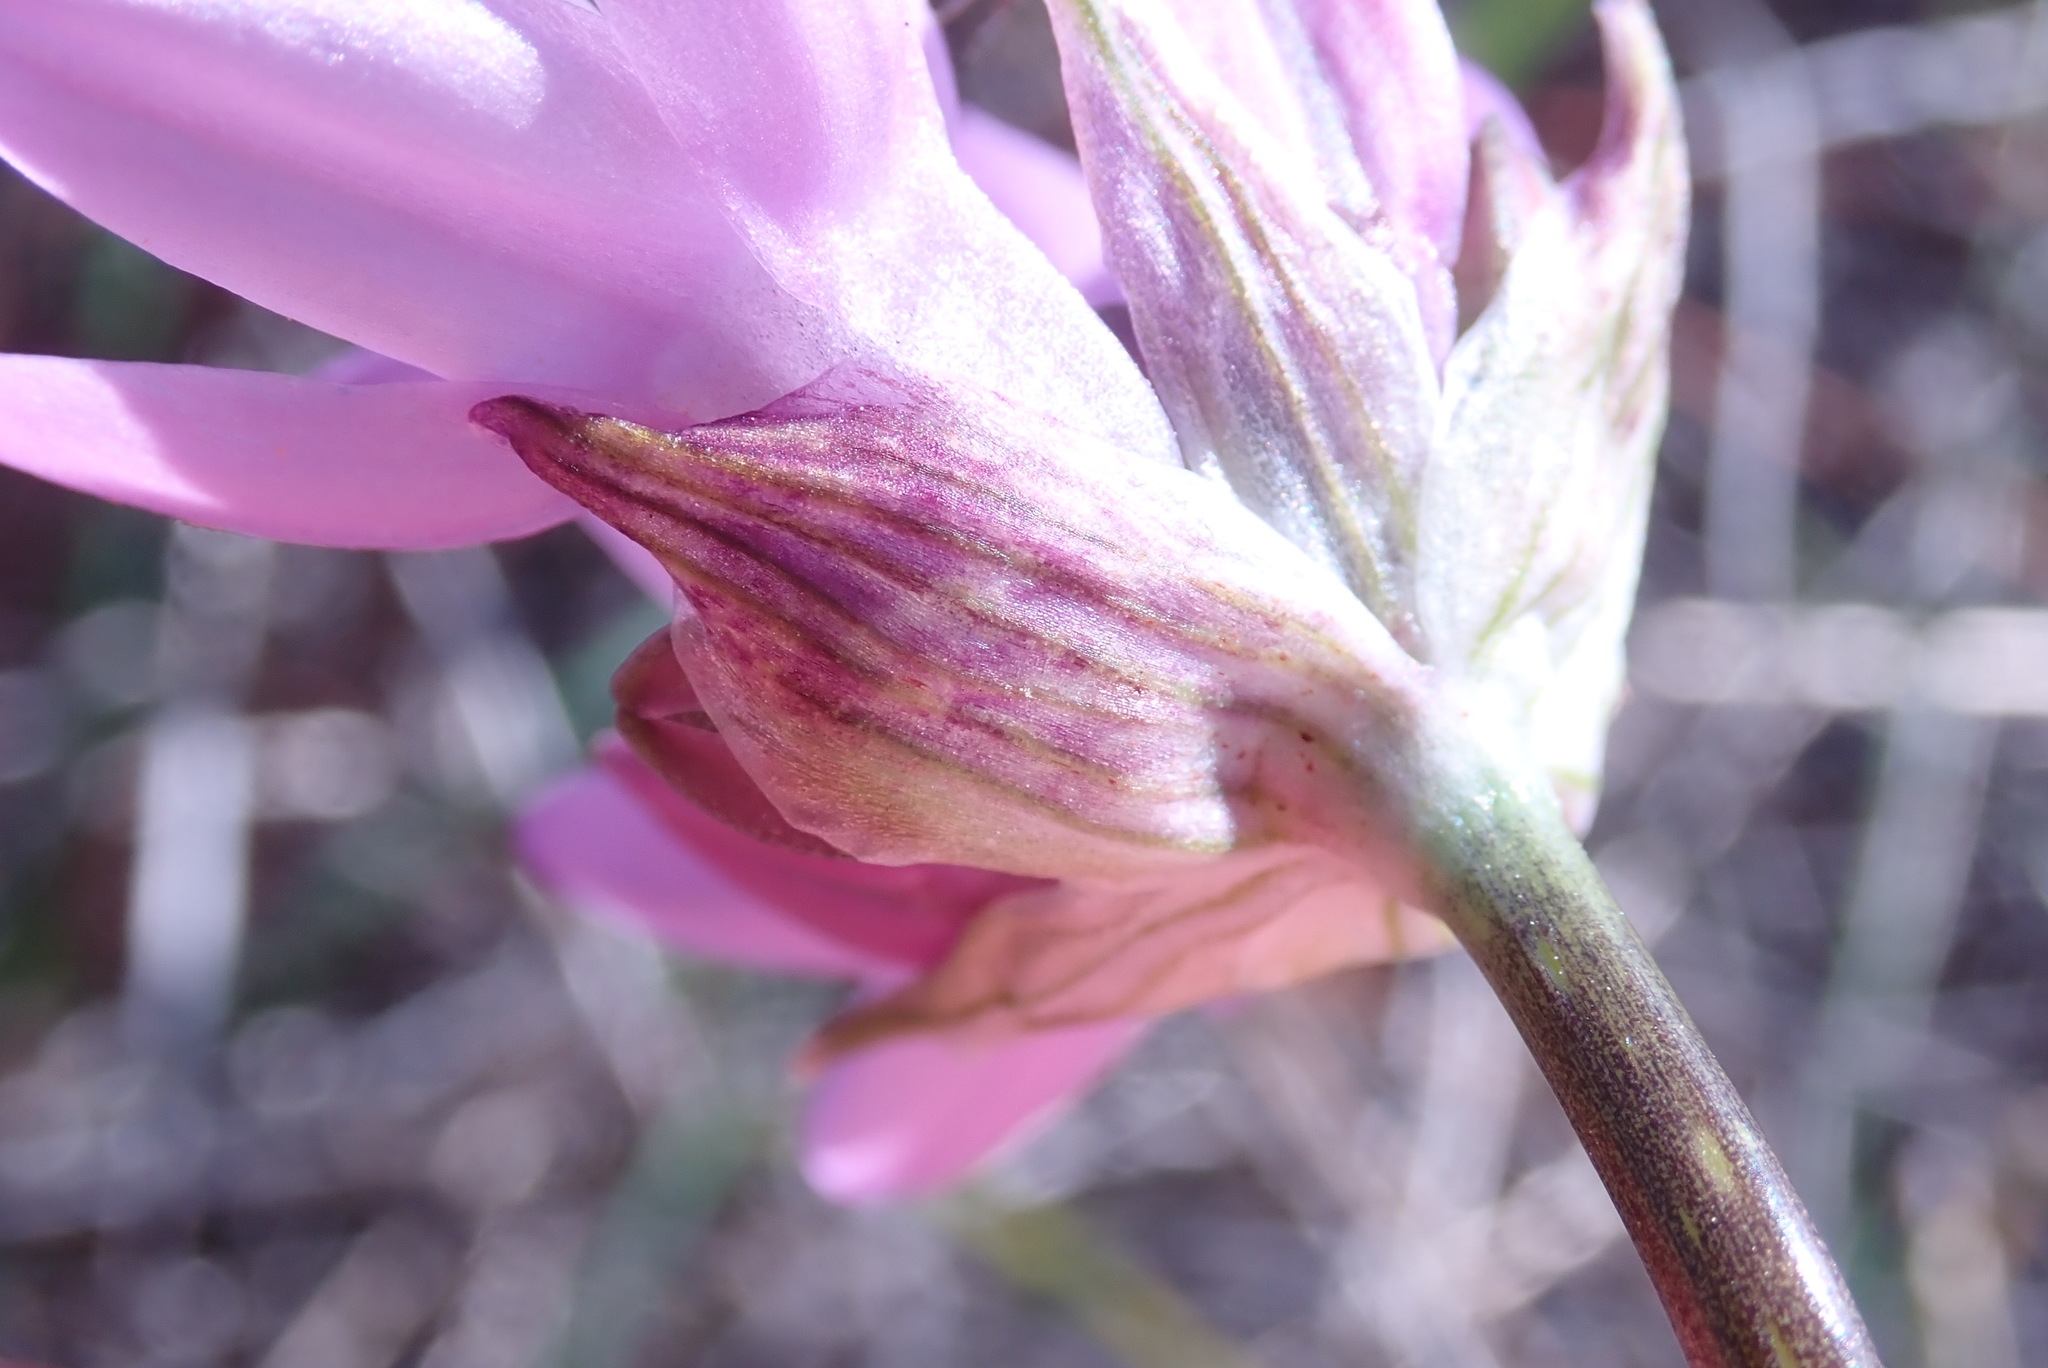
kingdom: Plantae
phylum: Tracheophyta
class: Liliopsida
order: Asparagales
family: Asparagaceae
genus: Dipterostemon
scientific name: Dipterostemon capitatus
